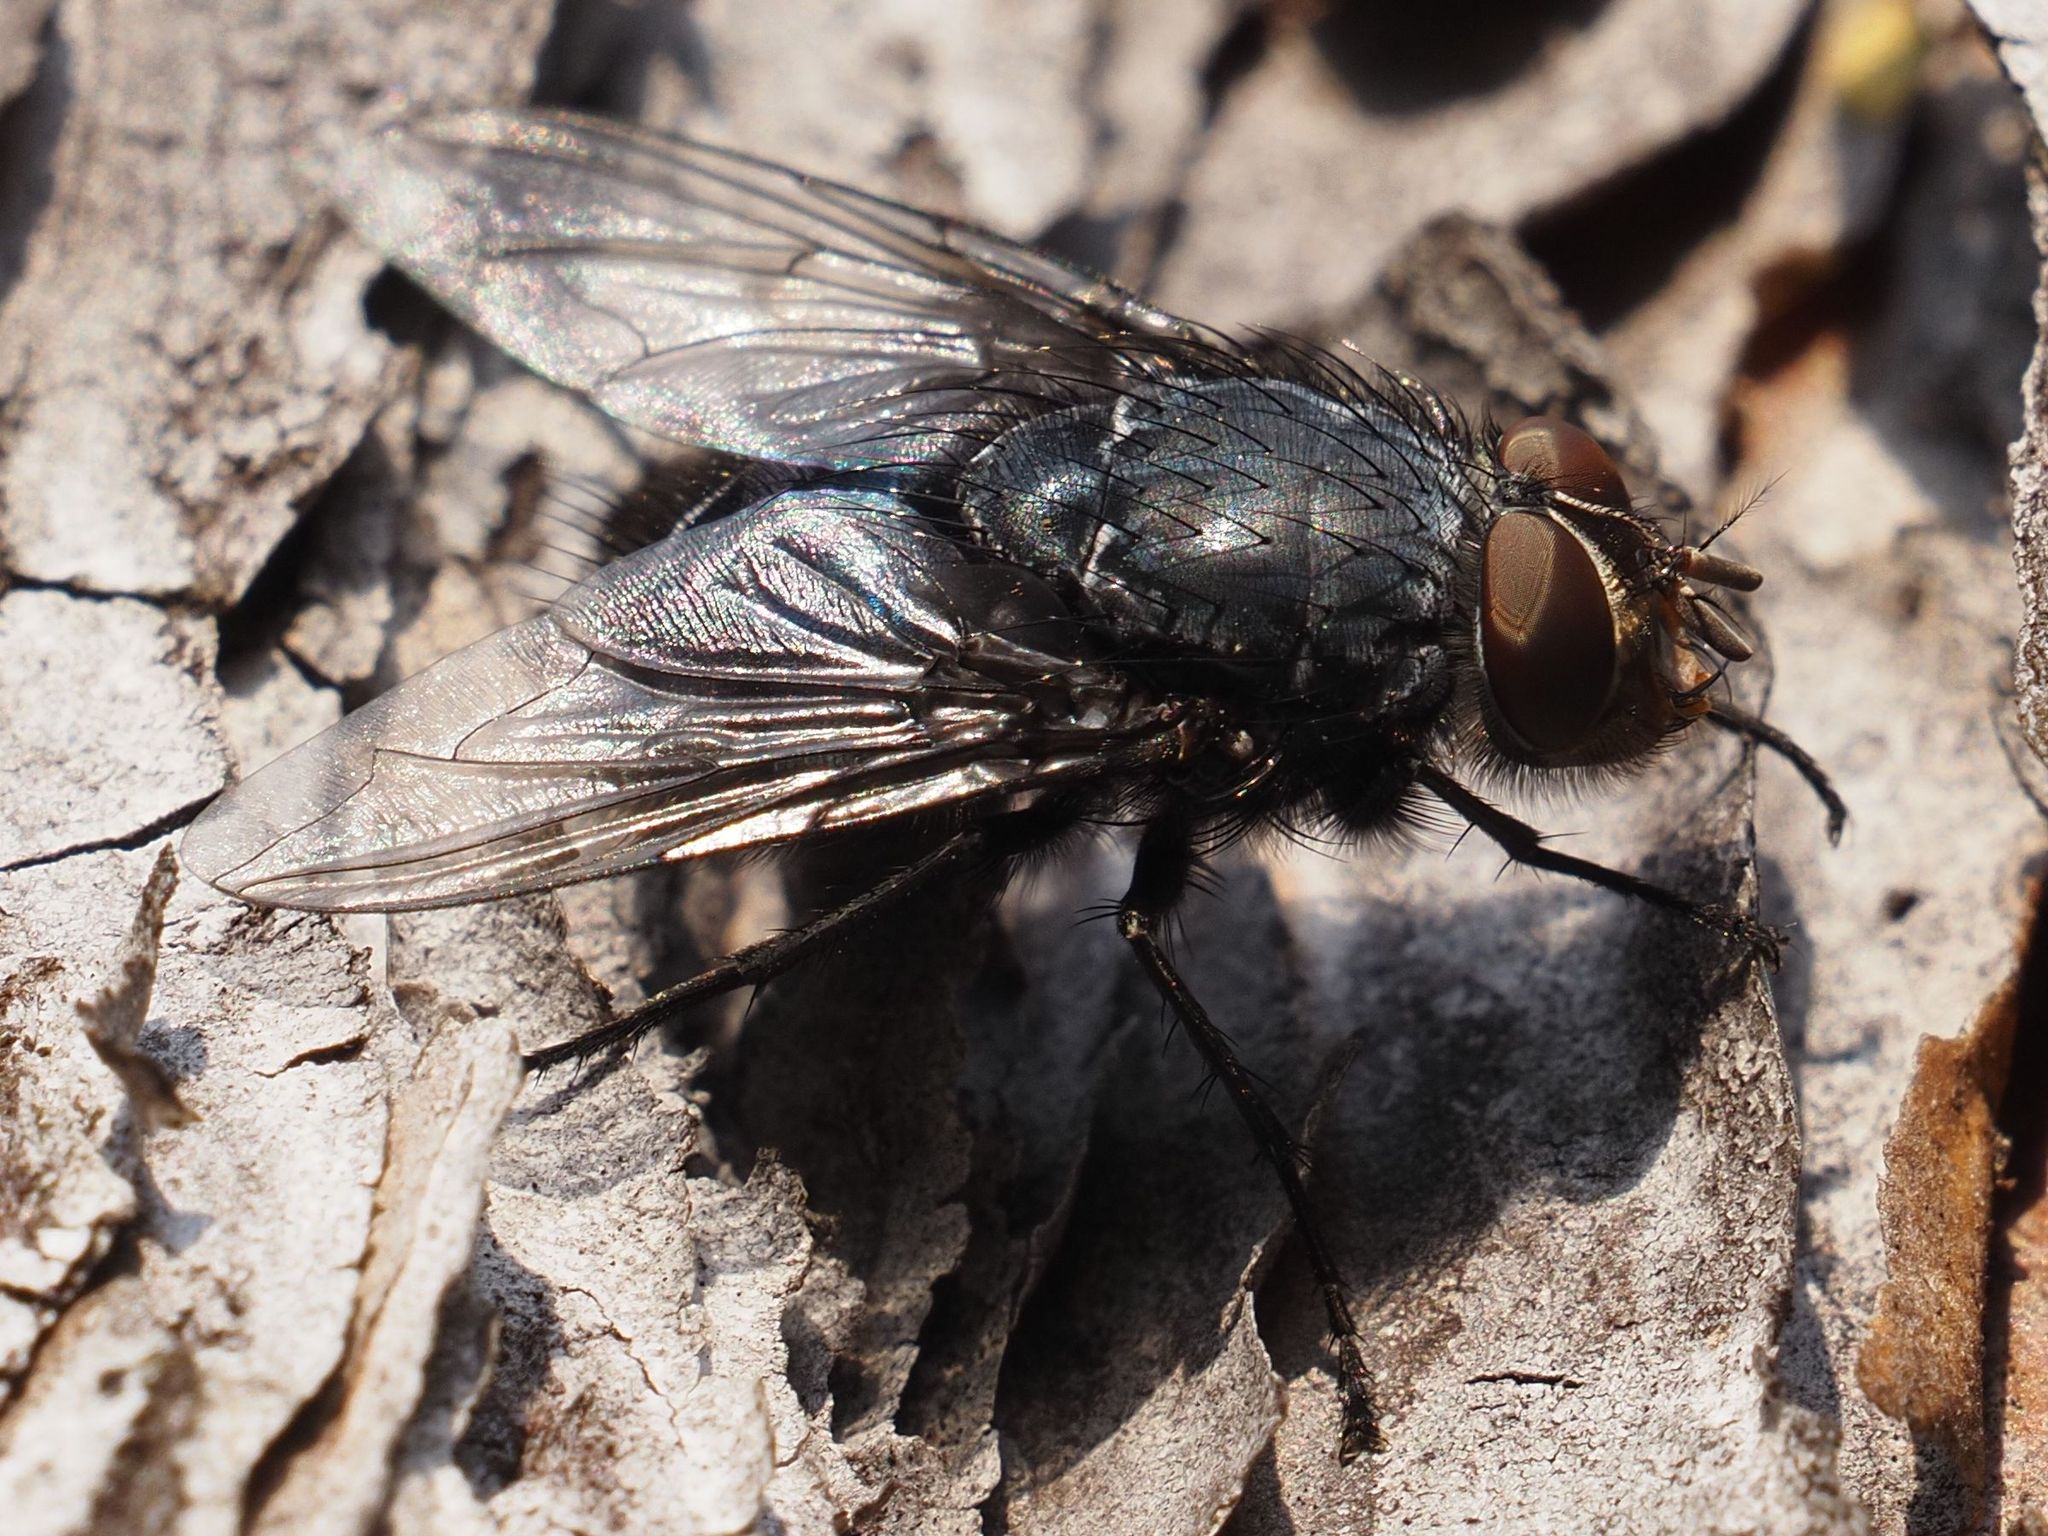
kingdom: Animalia
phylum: Arthropoda
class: Insecta
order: Diptera
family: Calliphoridae
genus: Calliphora
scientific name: Calliphora vicina
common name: Common blow flie
